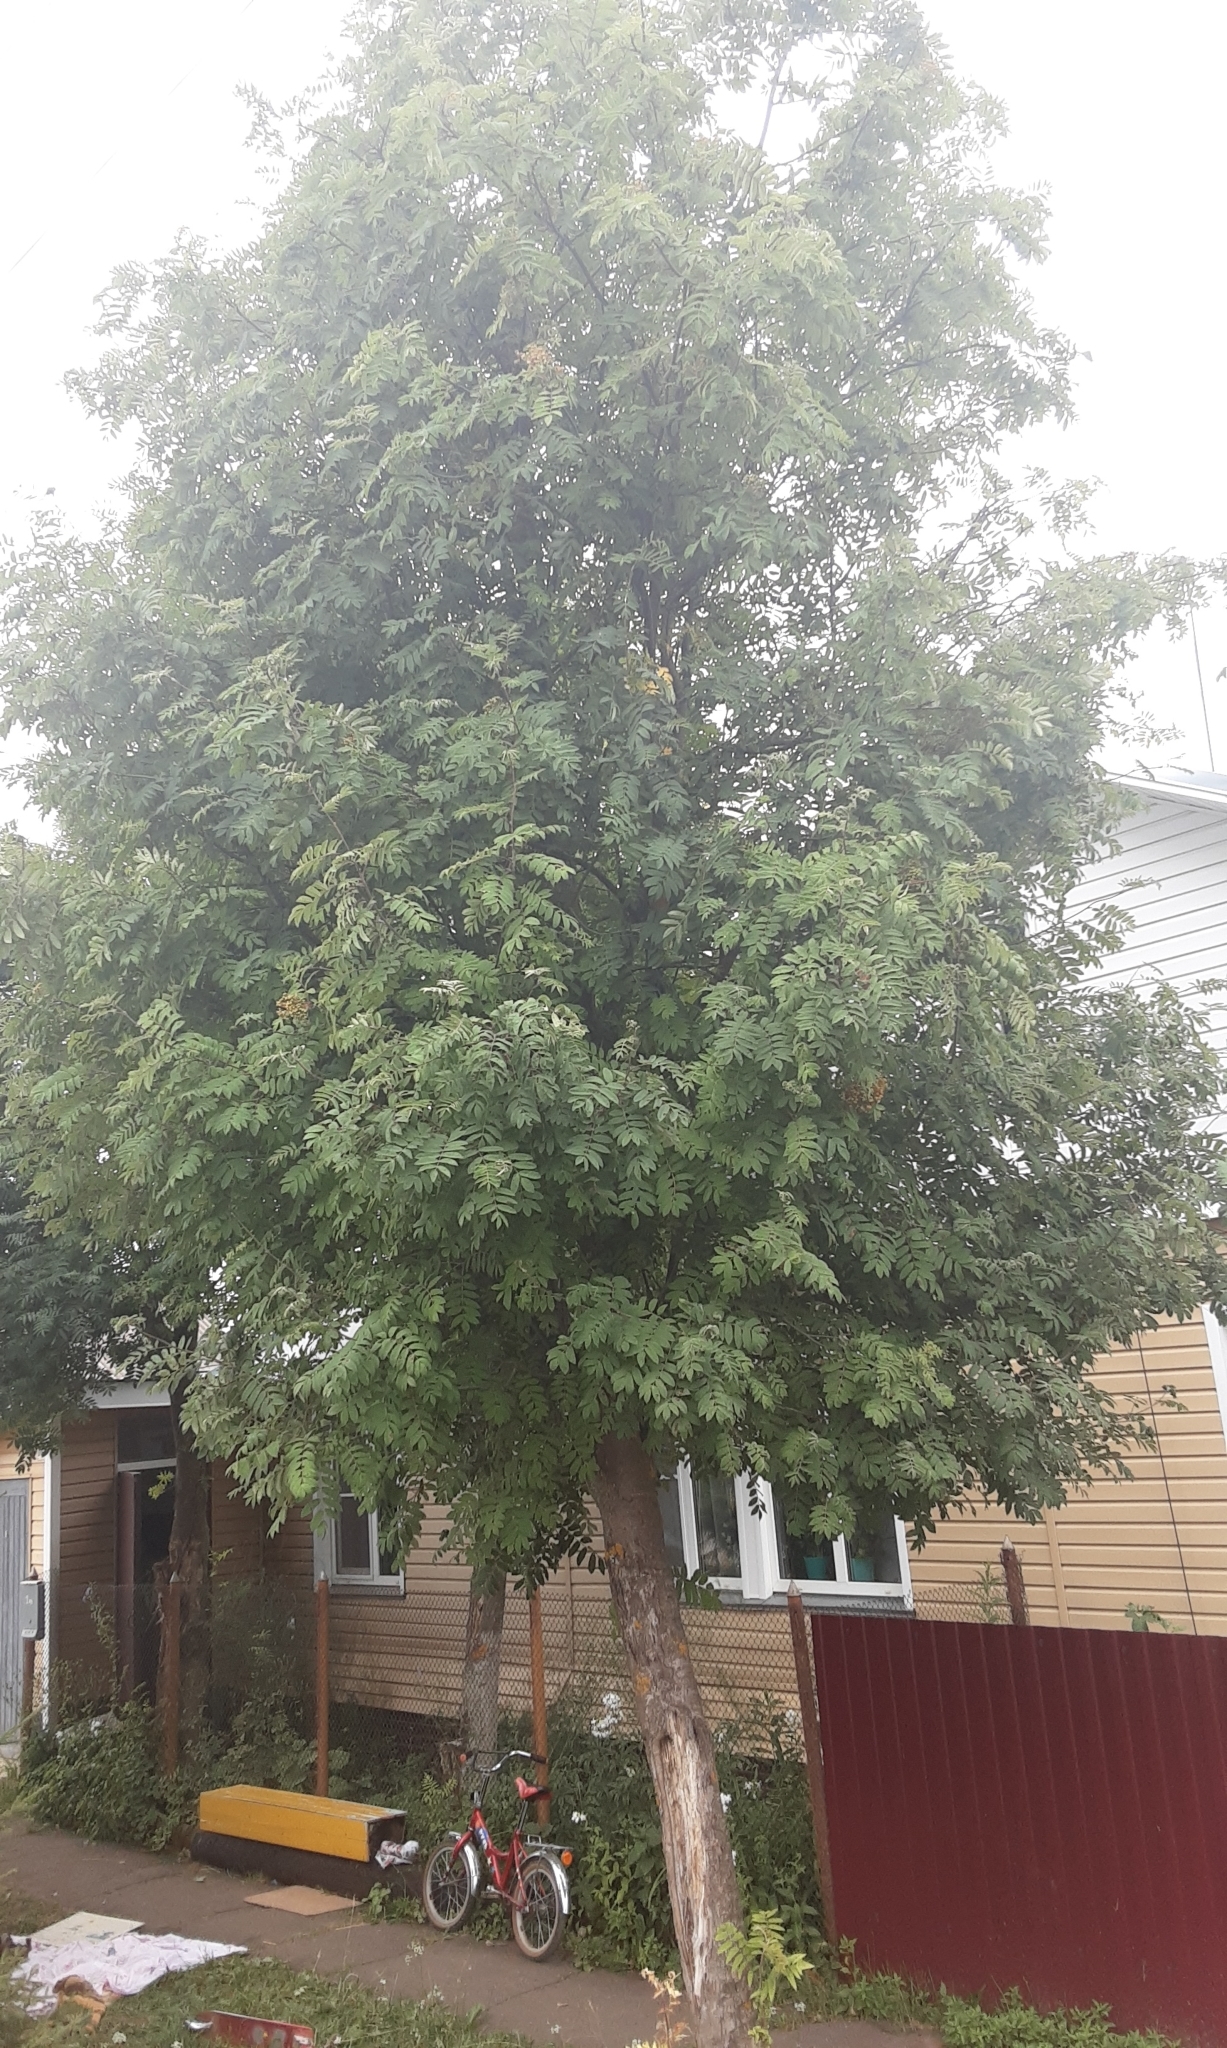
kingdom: Plantae
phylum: Tracheophyta
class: Magnoliopsida
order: Rosales
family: Rosaceae
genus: Sorbus
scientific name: Sorbus aucuparia
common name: Rowan
